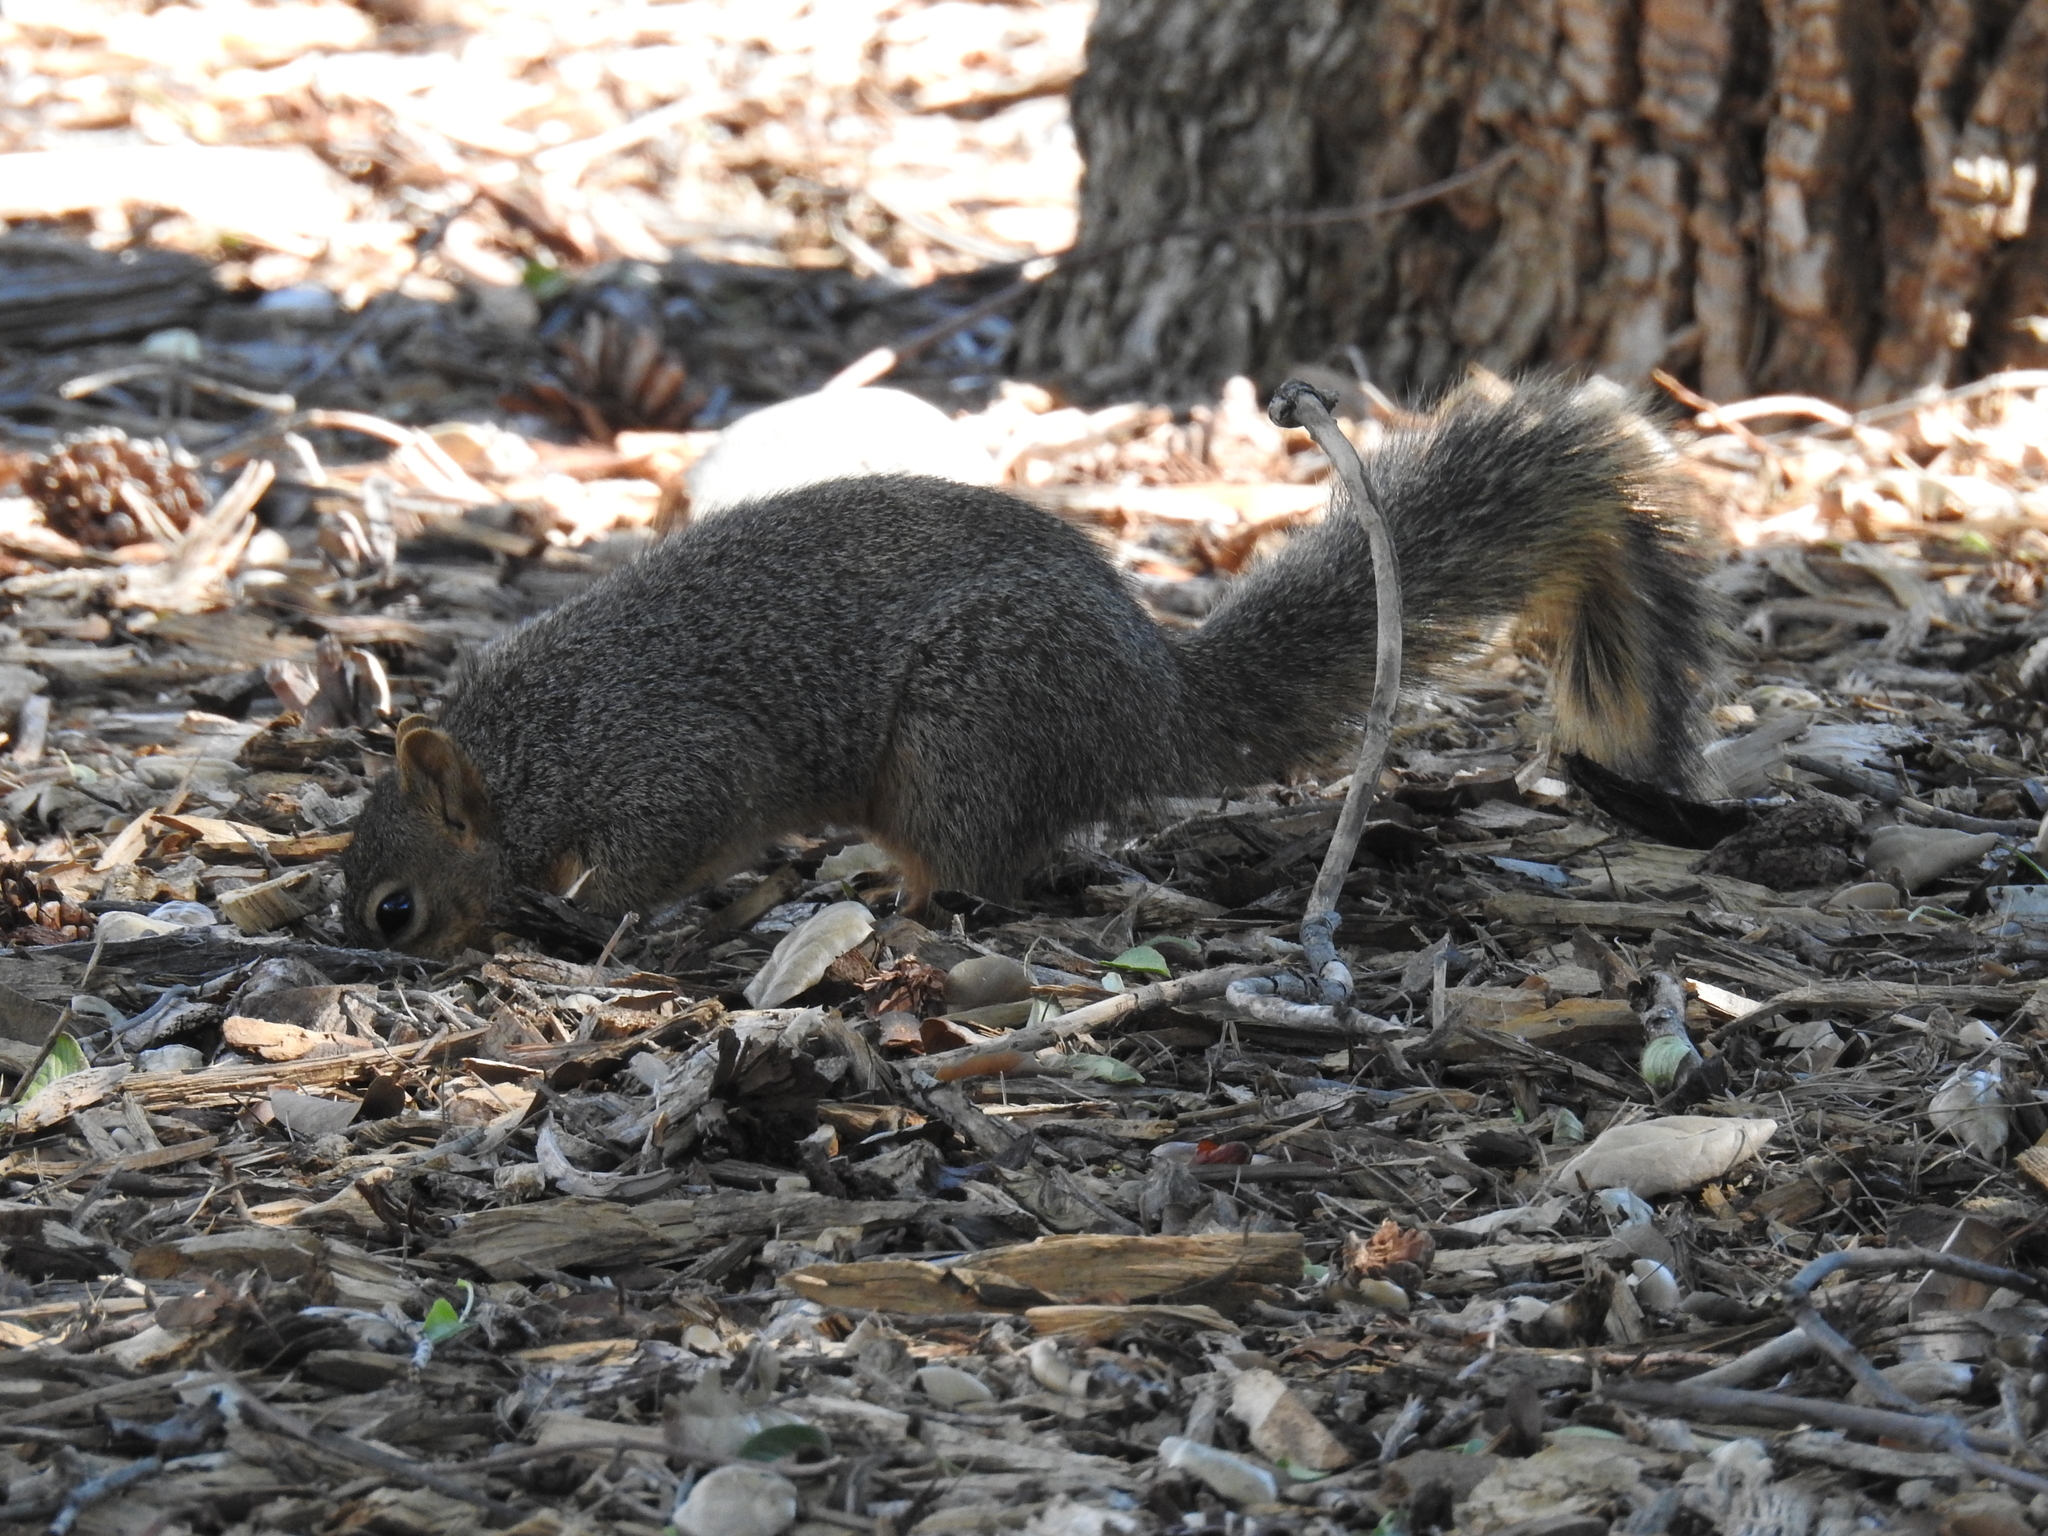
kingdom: Animalia
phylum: Chordata
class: Mammalia
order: Rodentia
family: Sciuridae
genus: Sciurus
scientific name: Sciurus niger
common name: Fox squirrel
